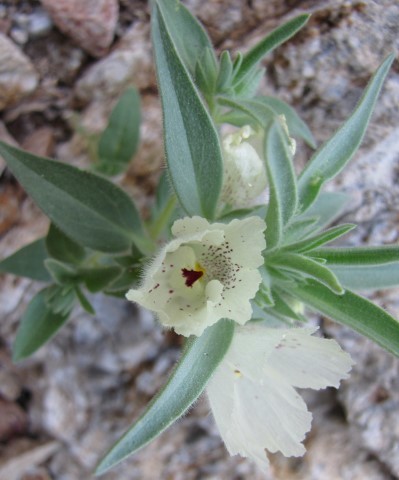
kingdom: Plantae
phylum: Tracheophyta
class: Magnoliopsida
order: Lamiales
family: Plantaginaceae
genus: Mohavea
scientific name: Mohavea confertiflora
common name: Ghost flower
